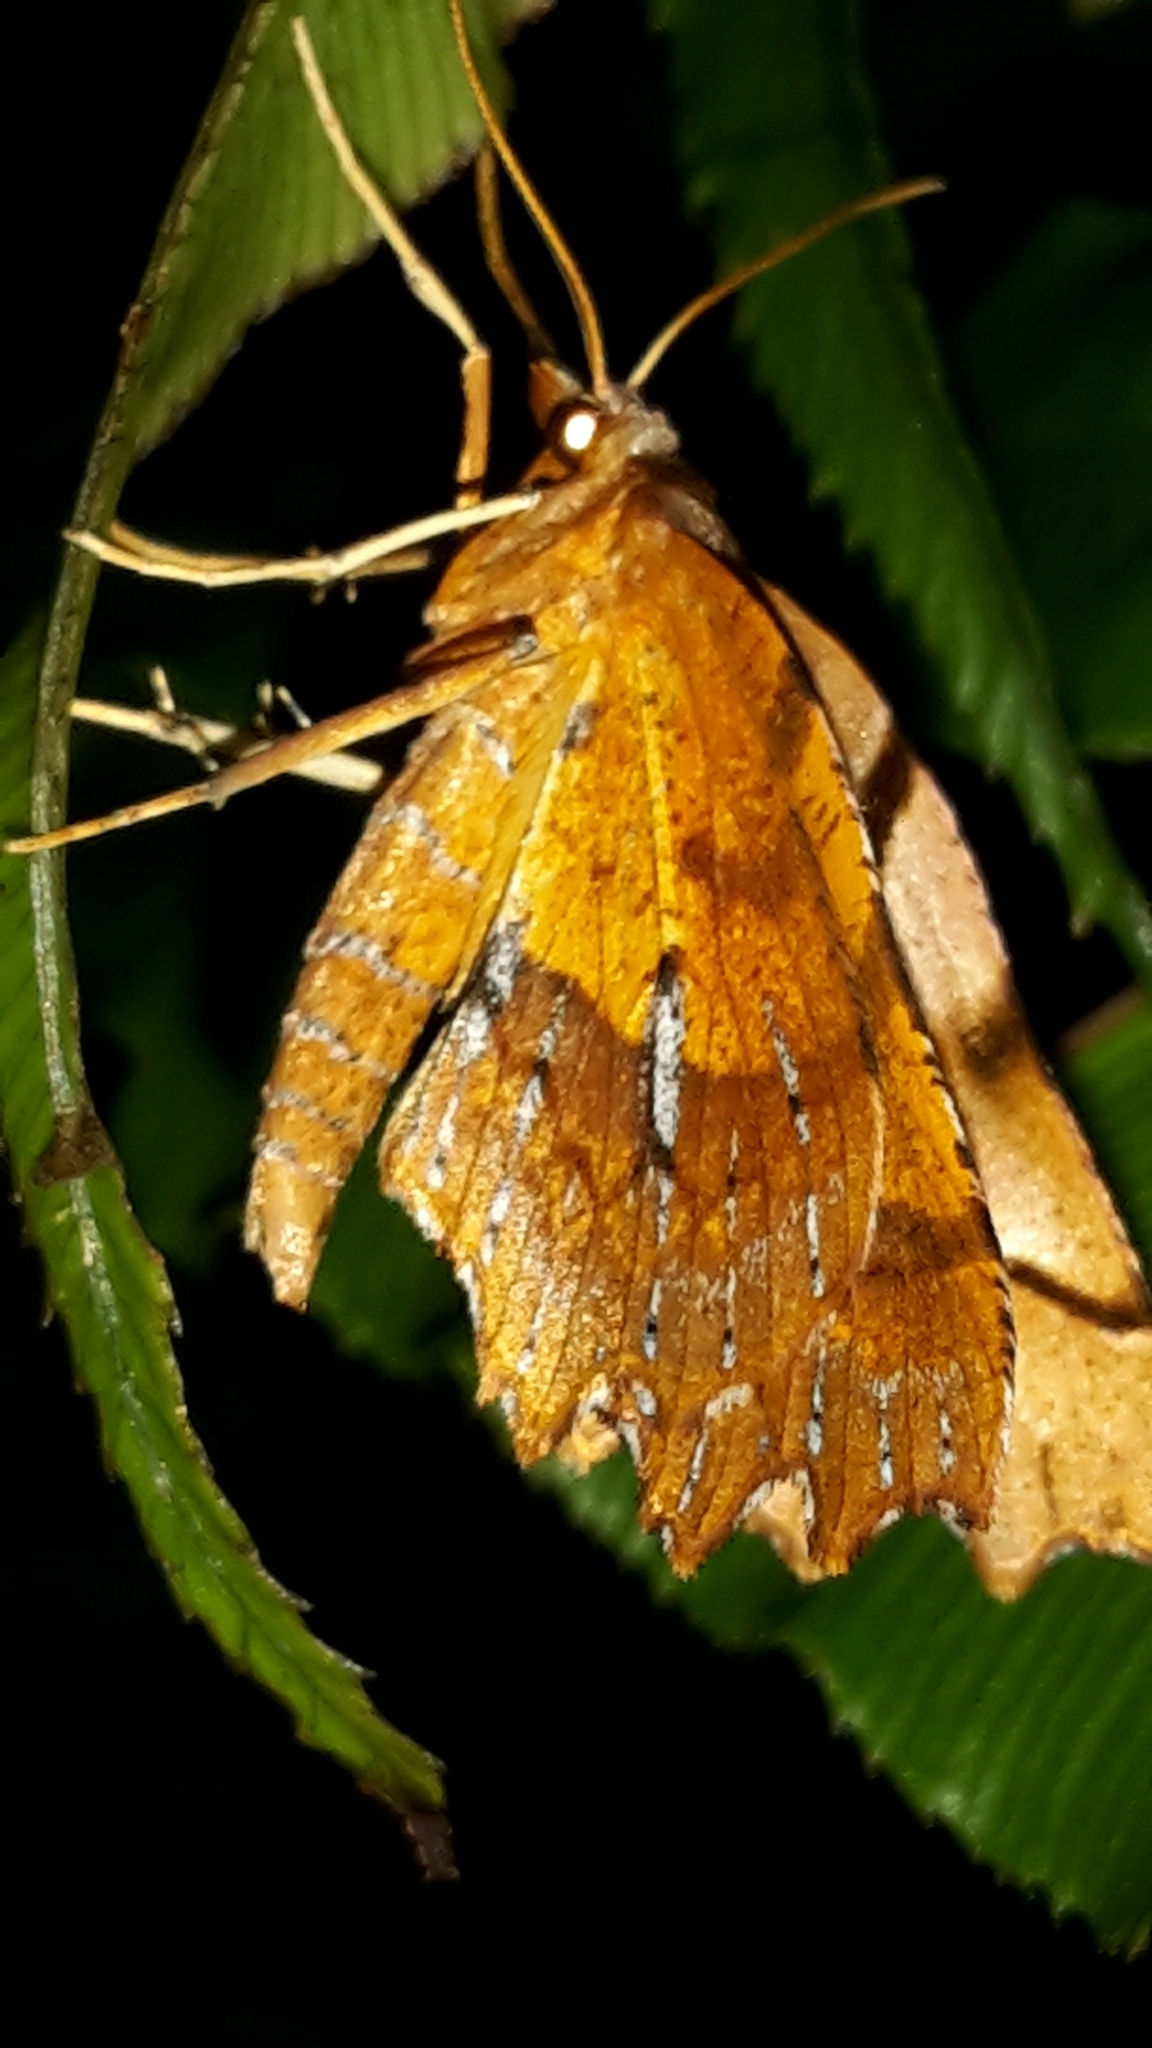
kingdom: Animalia
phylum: Arthropoda
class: Insecta
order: Lepidoptera
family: Geometridae
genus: Ischalis
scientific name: Ischalis fortinata
